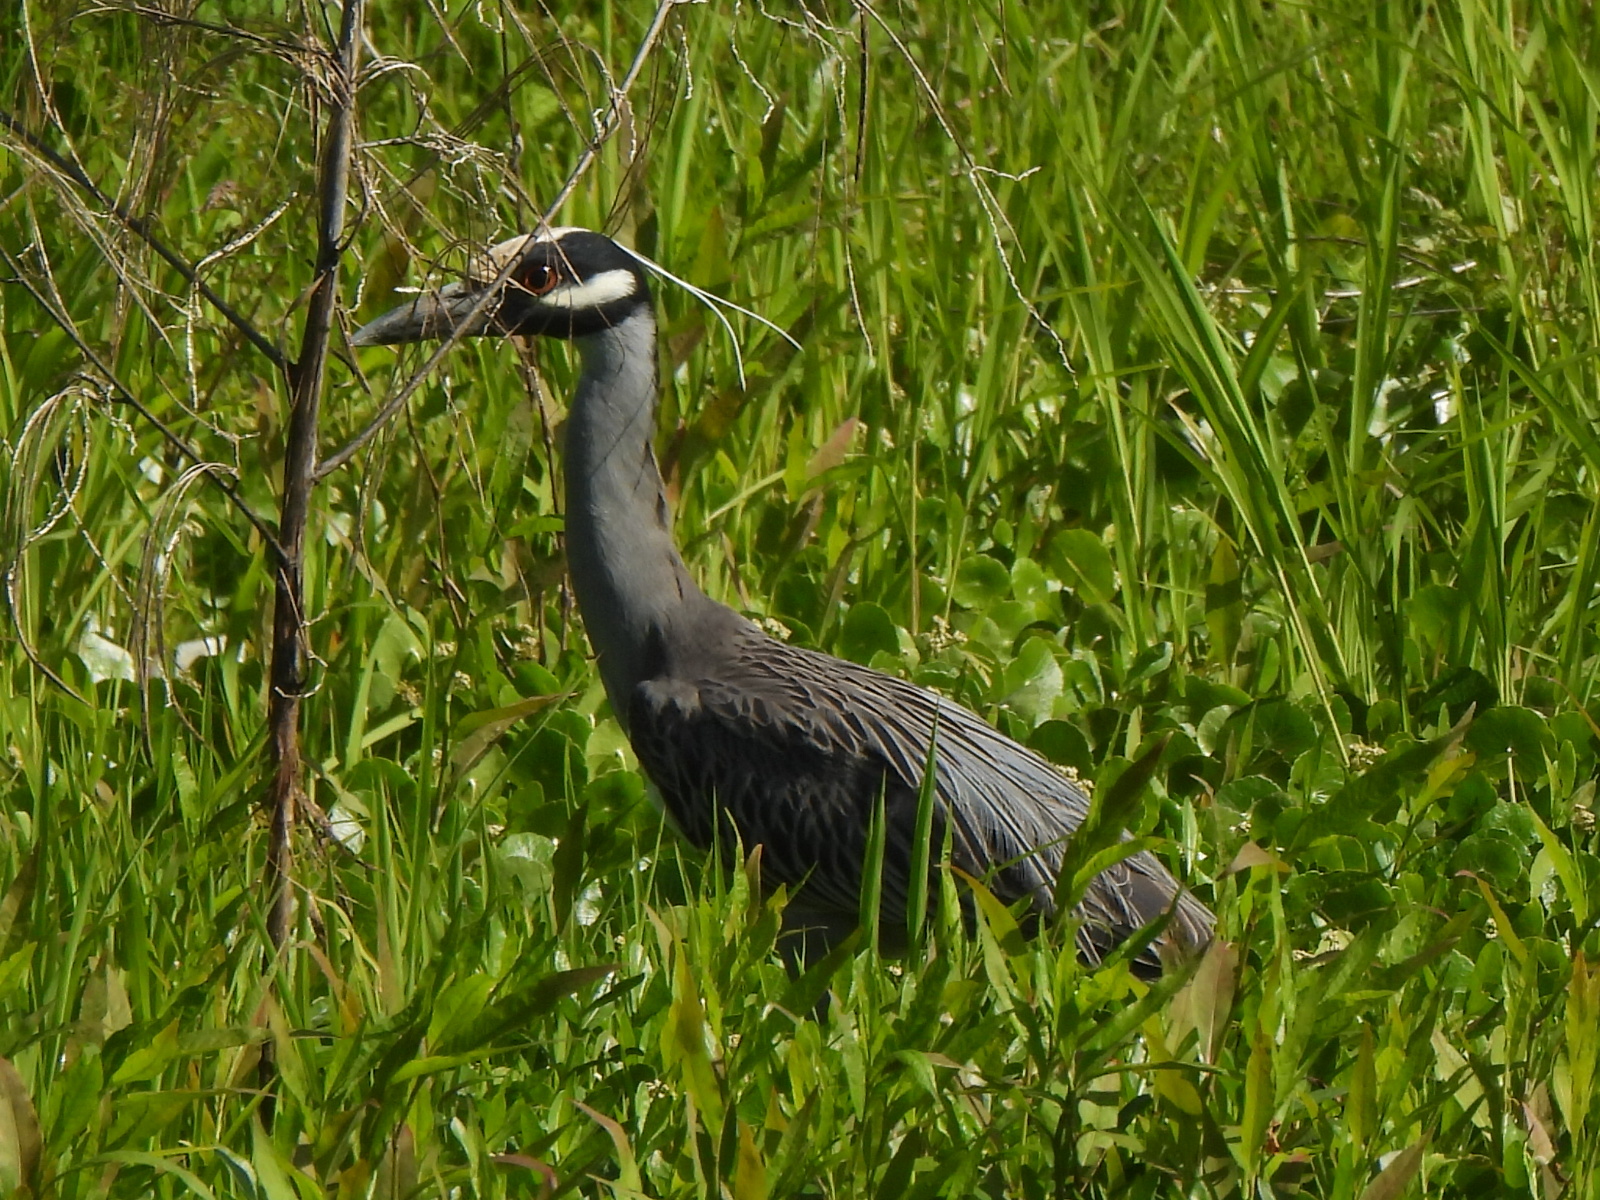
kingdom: Animalia
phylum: Chordata
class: Aves
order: Pelecaniformes
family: Ardeidae
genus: Nyctanassa
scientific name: Nyctanassa violacea
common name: Yellow-crowned night heron
